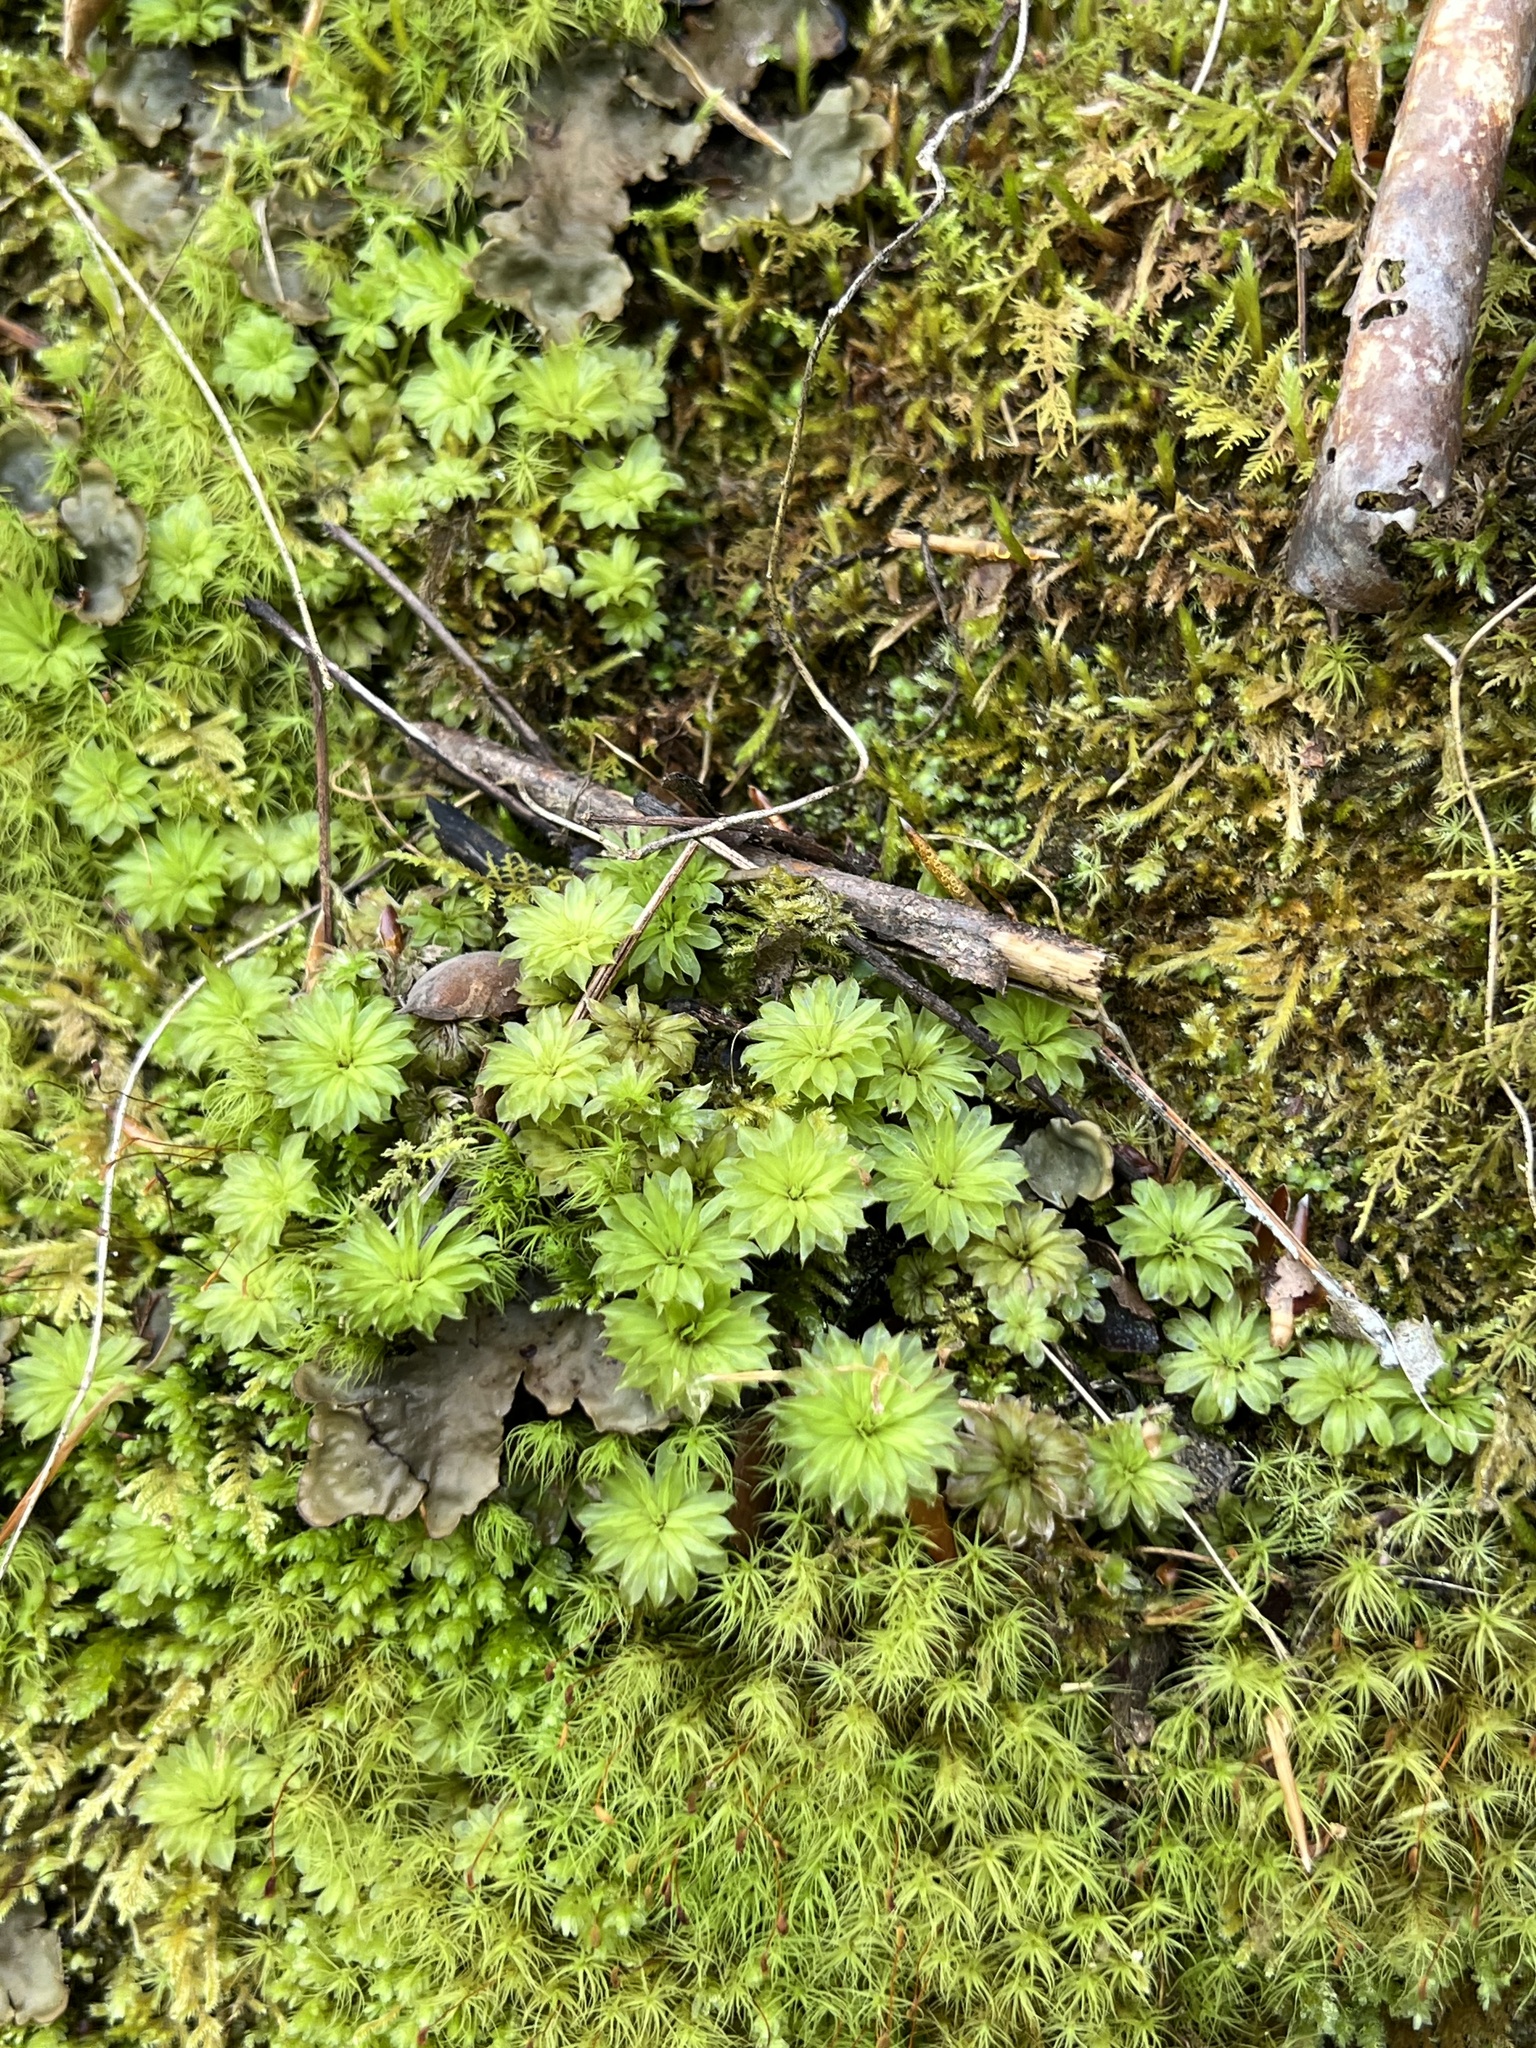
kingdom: Plantae
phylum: Bryophyta
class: Bryopsida
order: Bryales
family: Bryaceae
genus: Rhodobryum
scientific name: Rhodobryum ontariense
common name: Ontario rhodobryum moss
